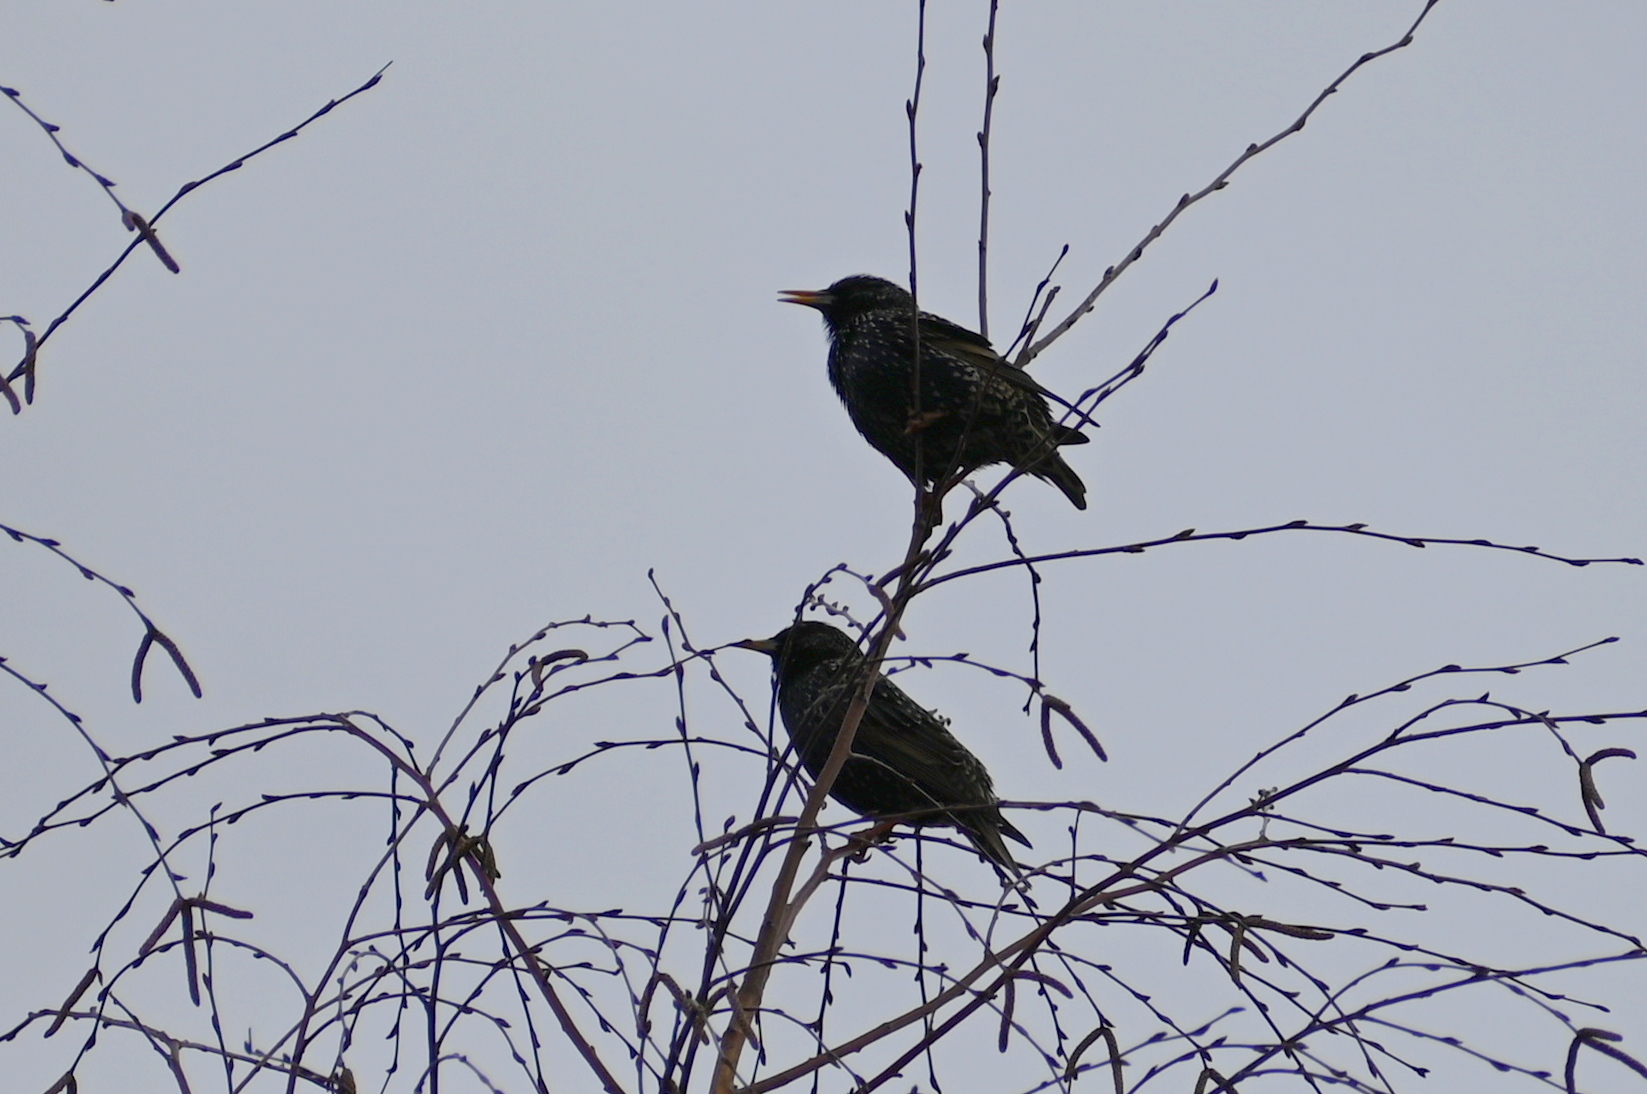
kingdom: Animalia
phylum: Chordata
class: Aves
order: Passeriformes
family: Sturnidae
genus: Sturnus
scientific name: Sturnus vulgaris
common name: Common starling
